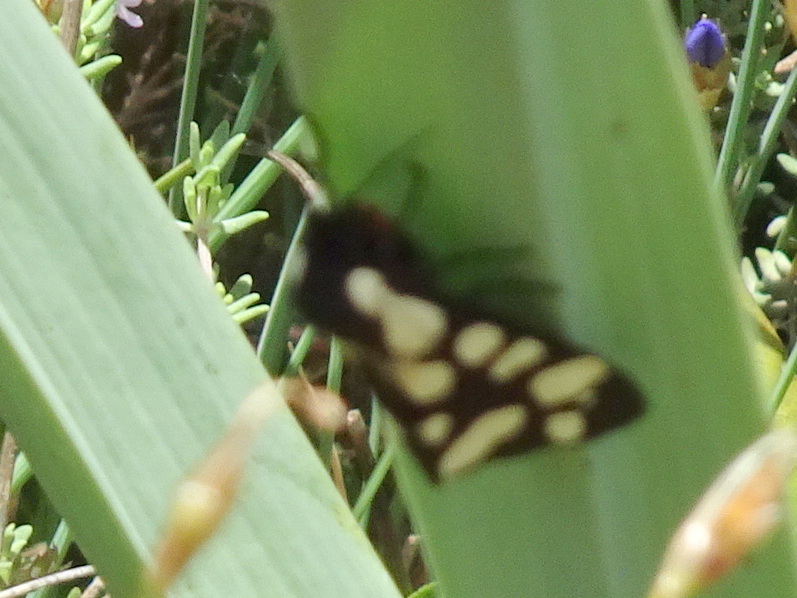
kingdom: Animalia
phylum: Arthropoda
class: Insecta
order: Lepidoptera
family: Erebidae
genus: Epicallia
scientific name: Epicallia villica
